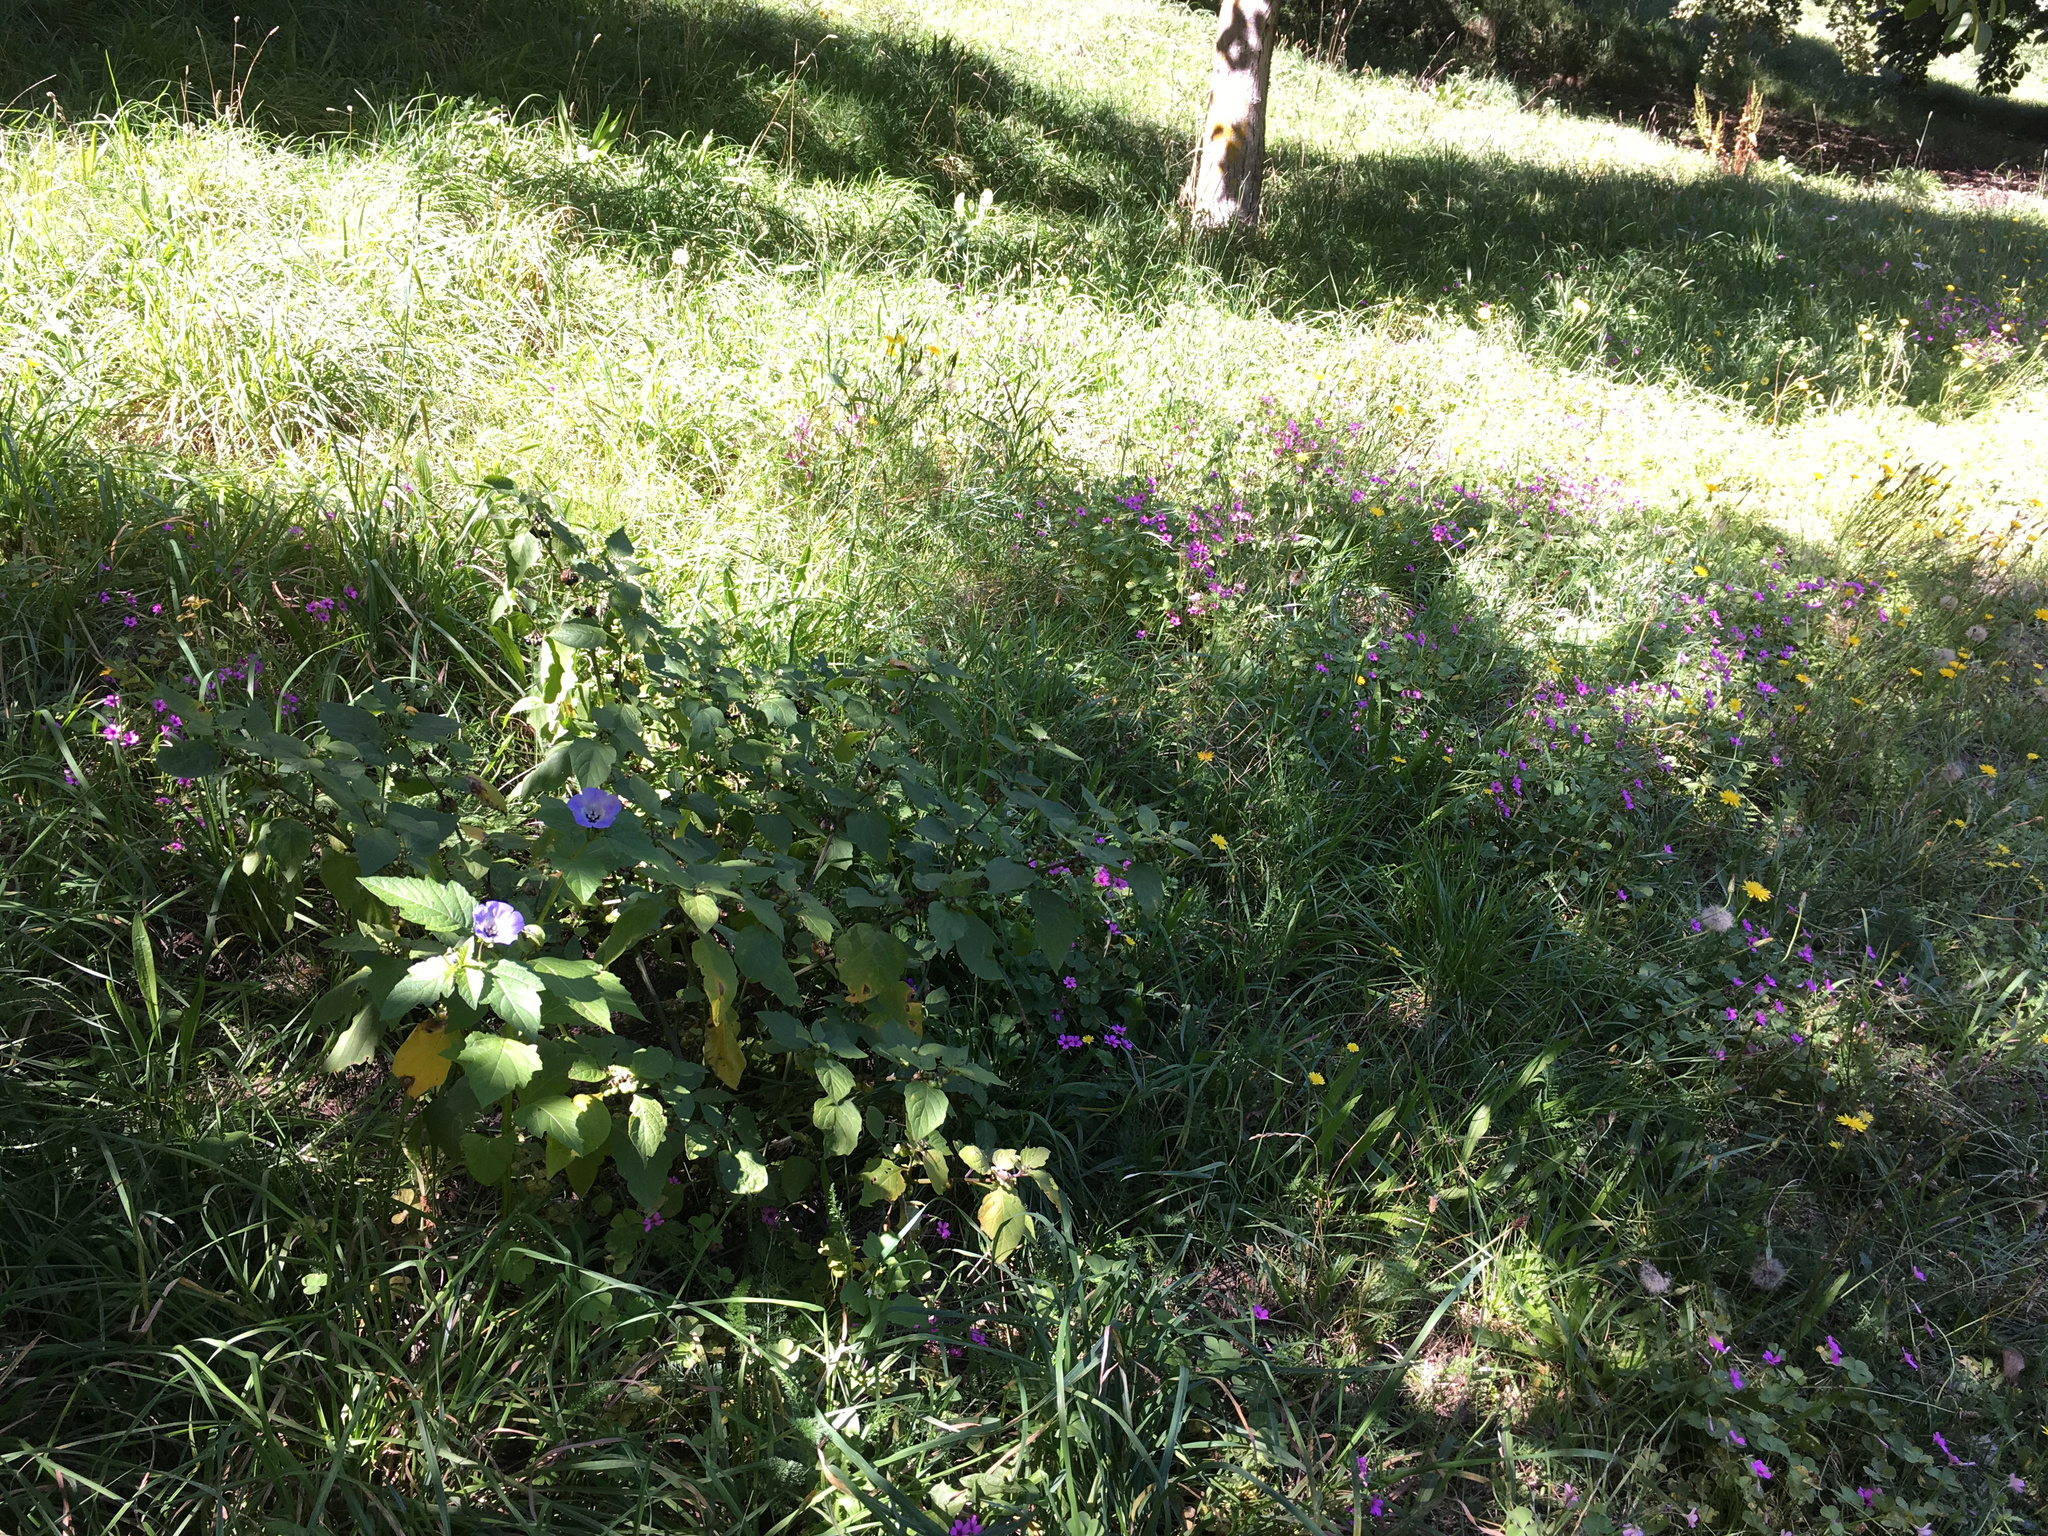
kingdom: Plantae
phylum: Tracheophyta
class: Magnoliopsida
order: Solanales
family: Solanaceae
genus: Nicandra
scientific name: Nicandra physalodes
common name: Apple-of-peru
